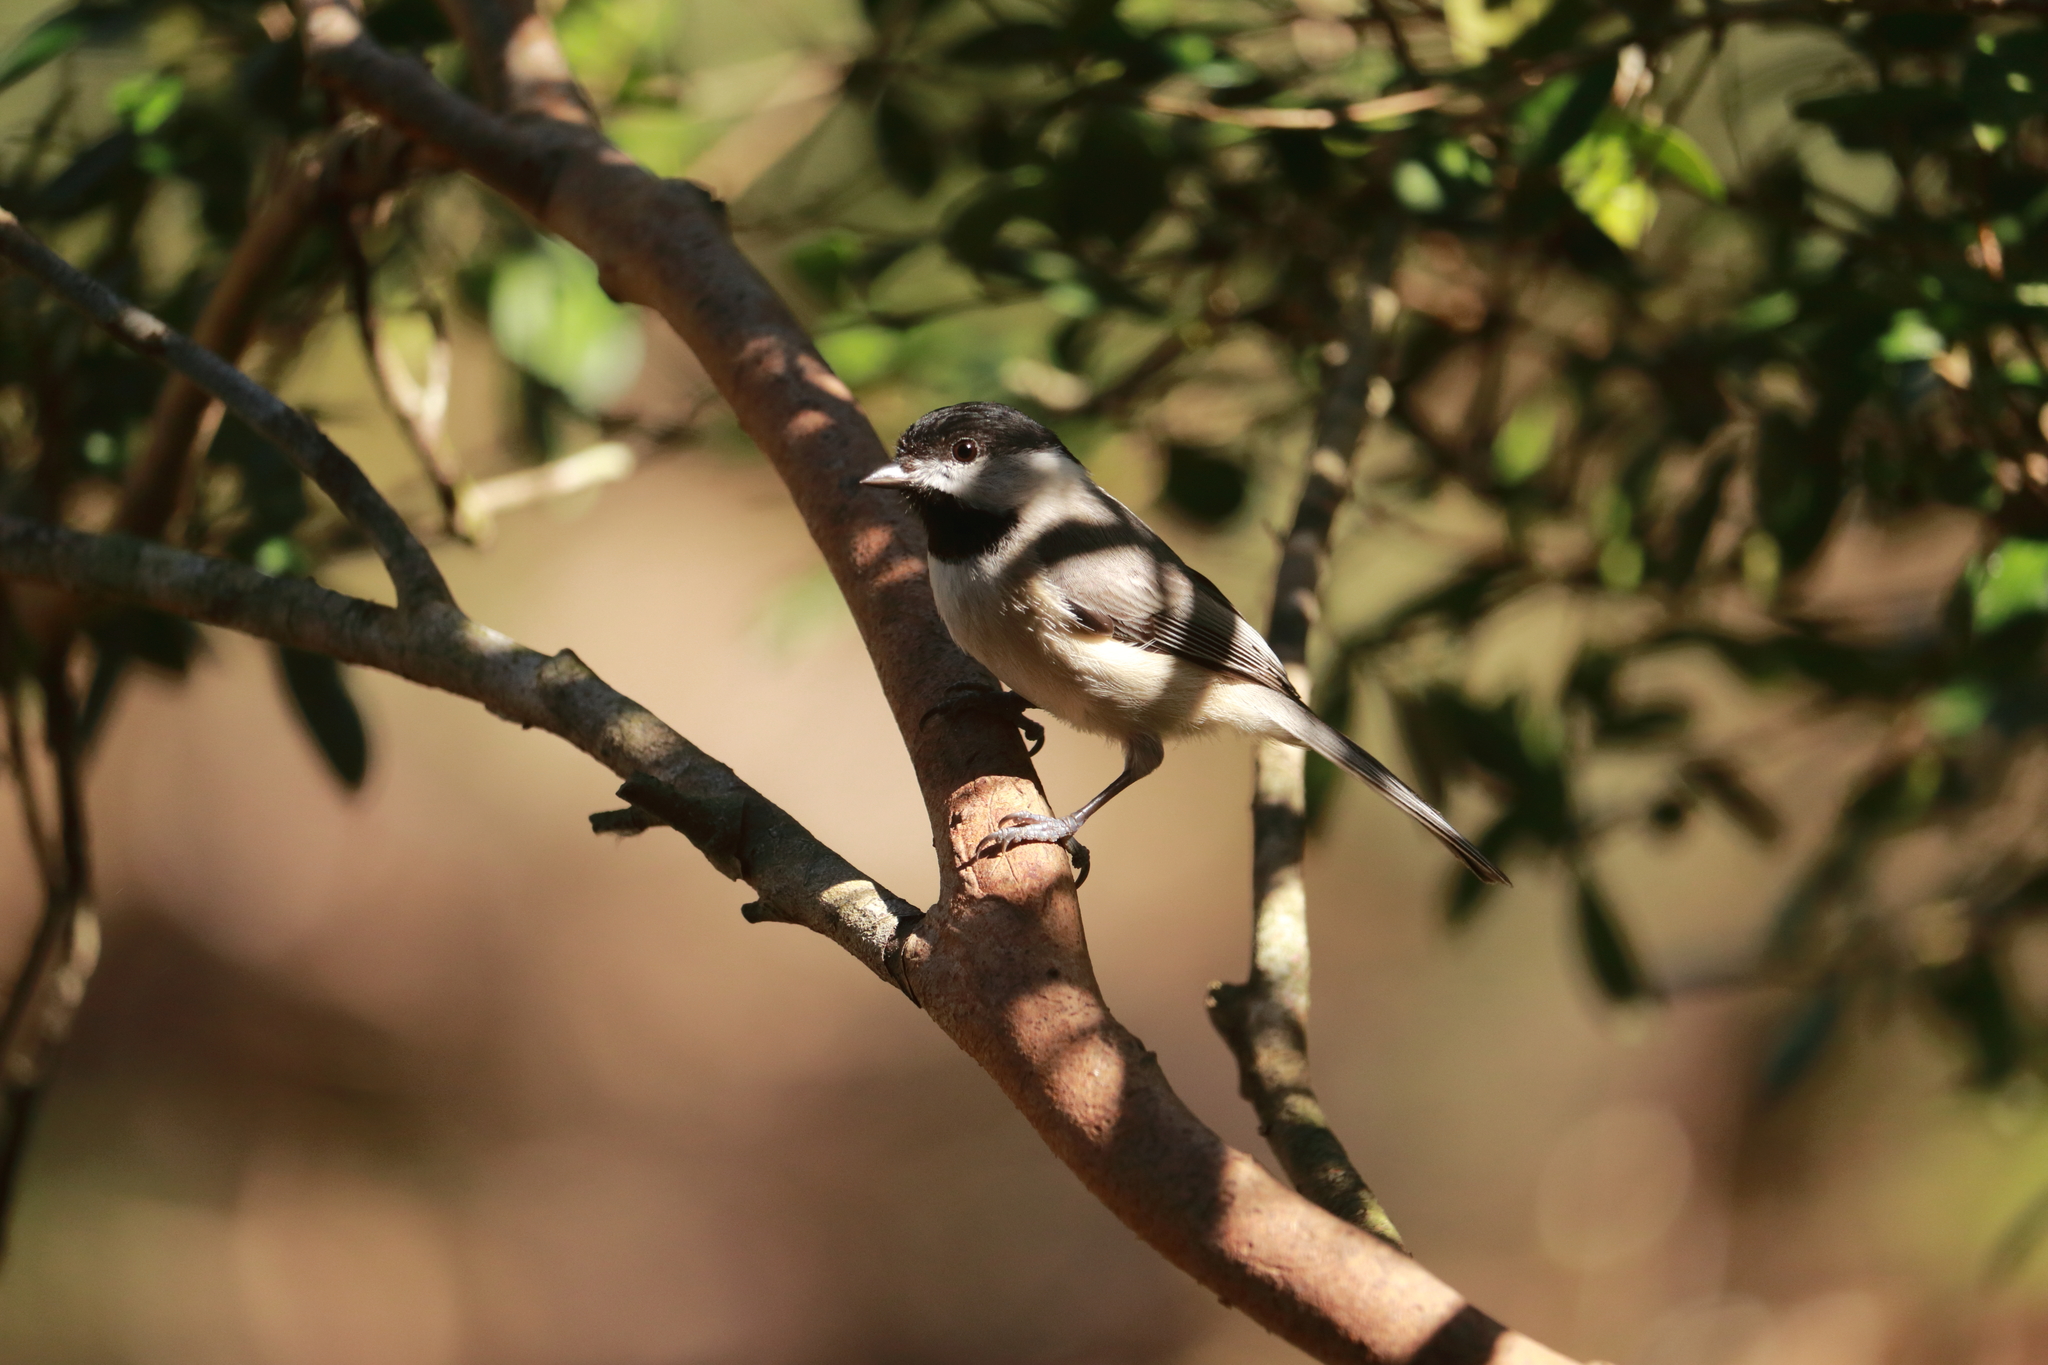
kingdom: Animalia
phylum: Chordata
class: Aves
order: Passeriformes
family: Paridae
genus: Poecile
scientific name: Poecile carolinensis
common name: Carolina chickadee
